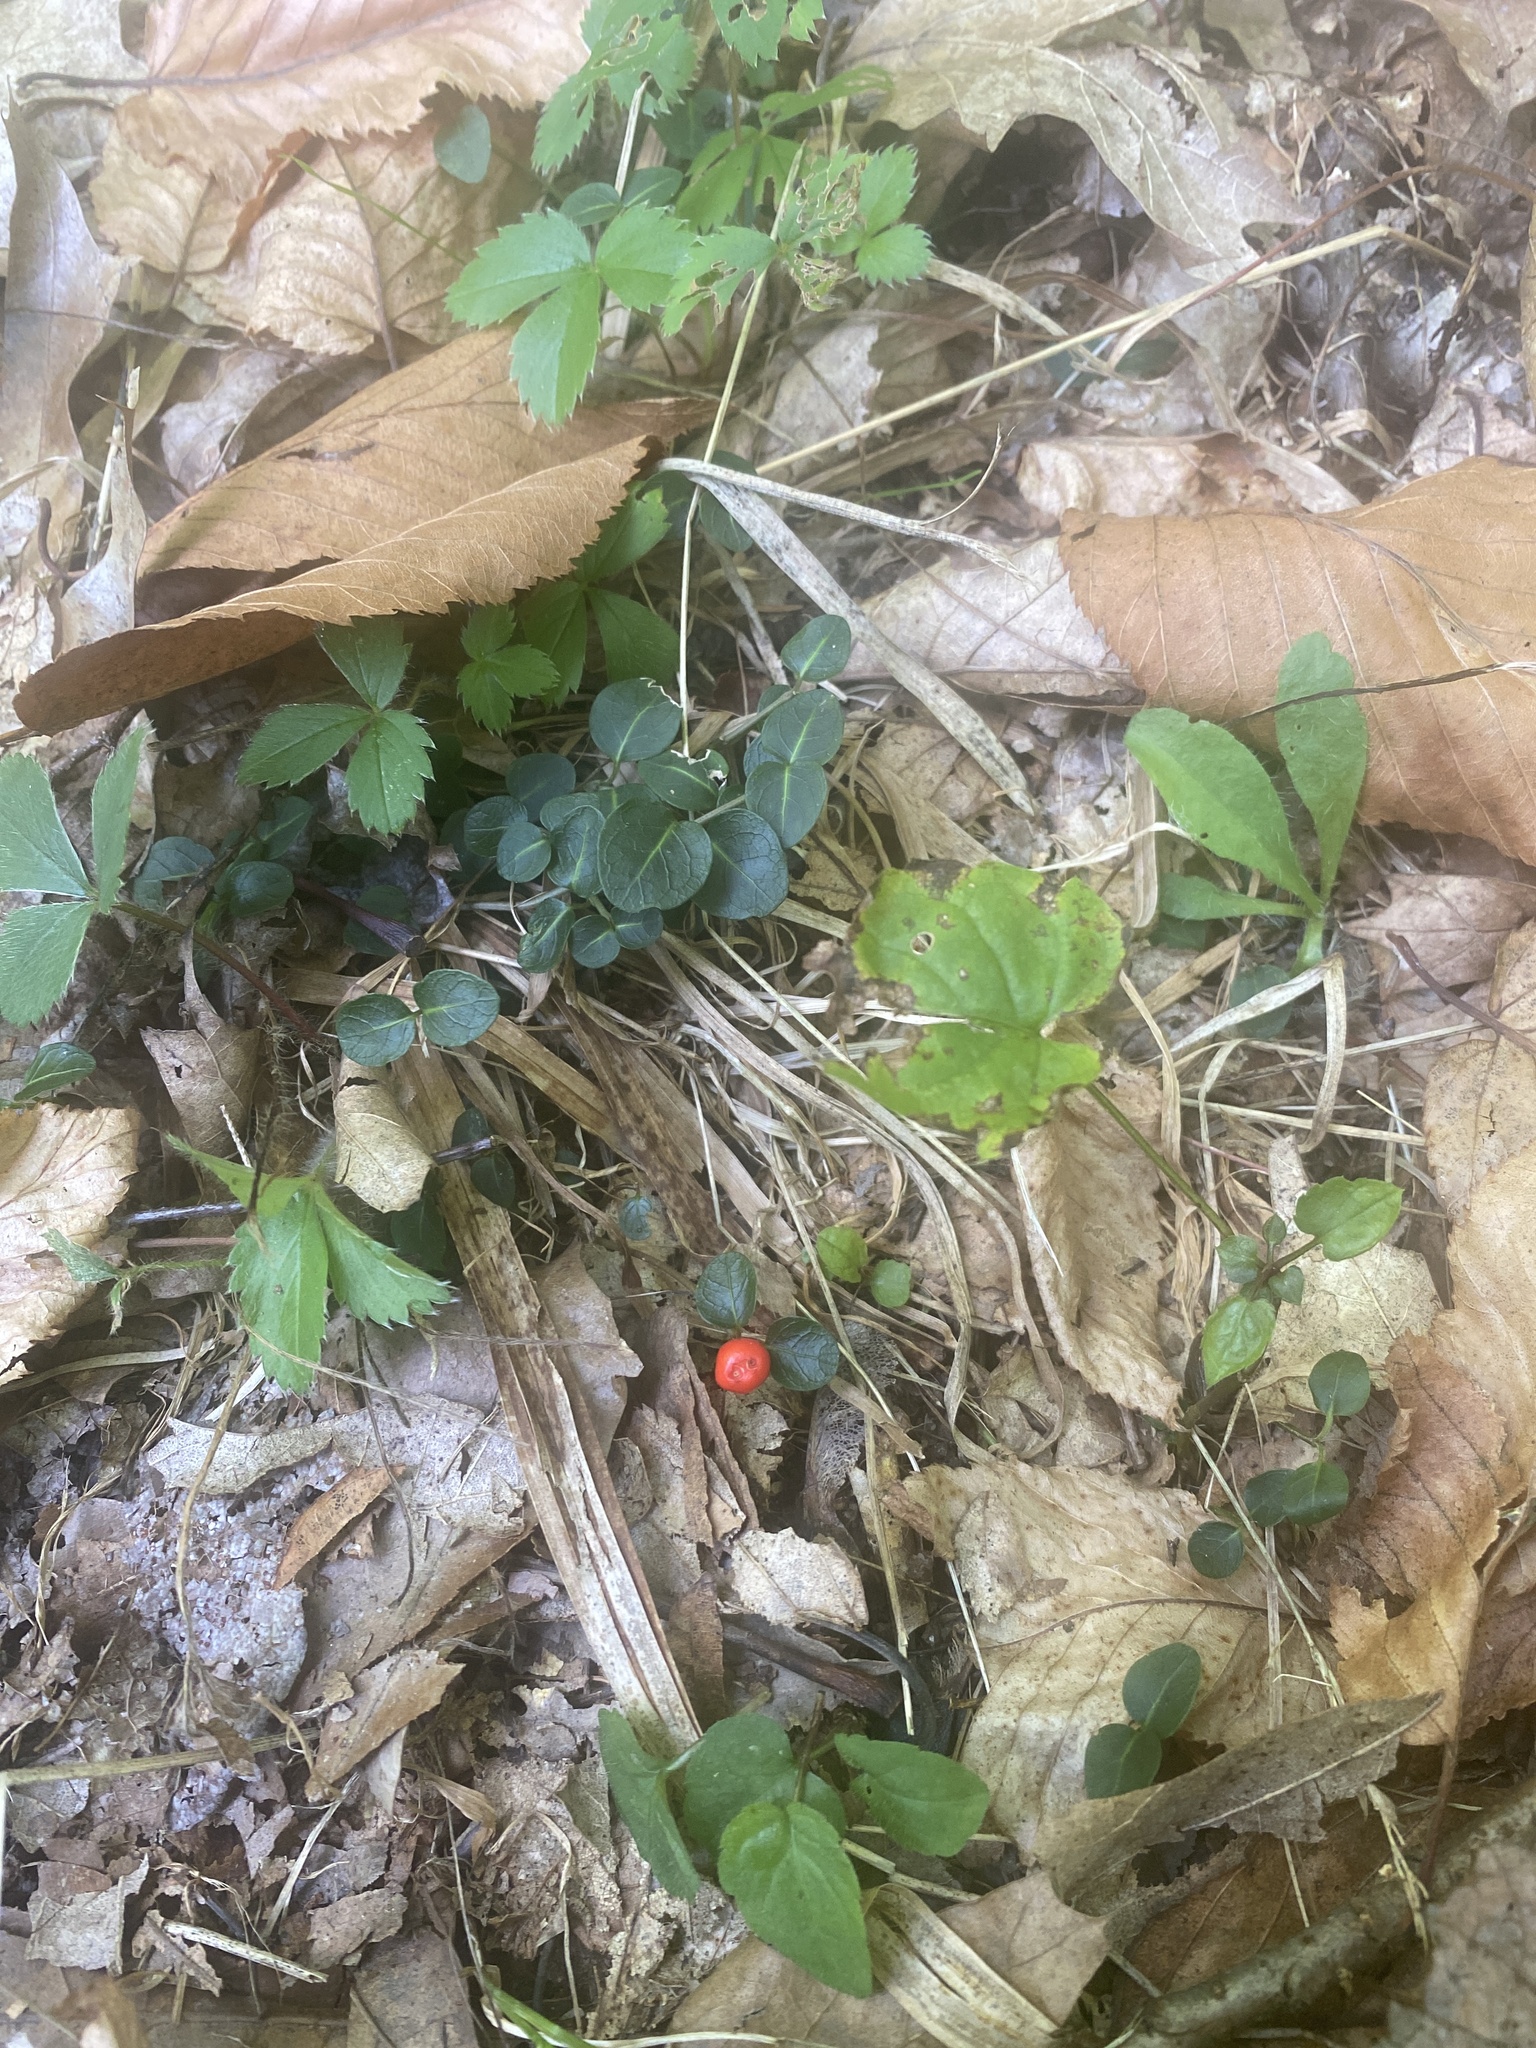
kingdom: Plantae
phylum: Tracheophyta
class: Magnoliopsida
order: Gentianales
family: Rubiaceae
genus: Mitchella
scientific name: Mitchella repens
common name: Partridge-berry
